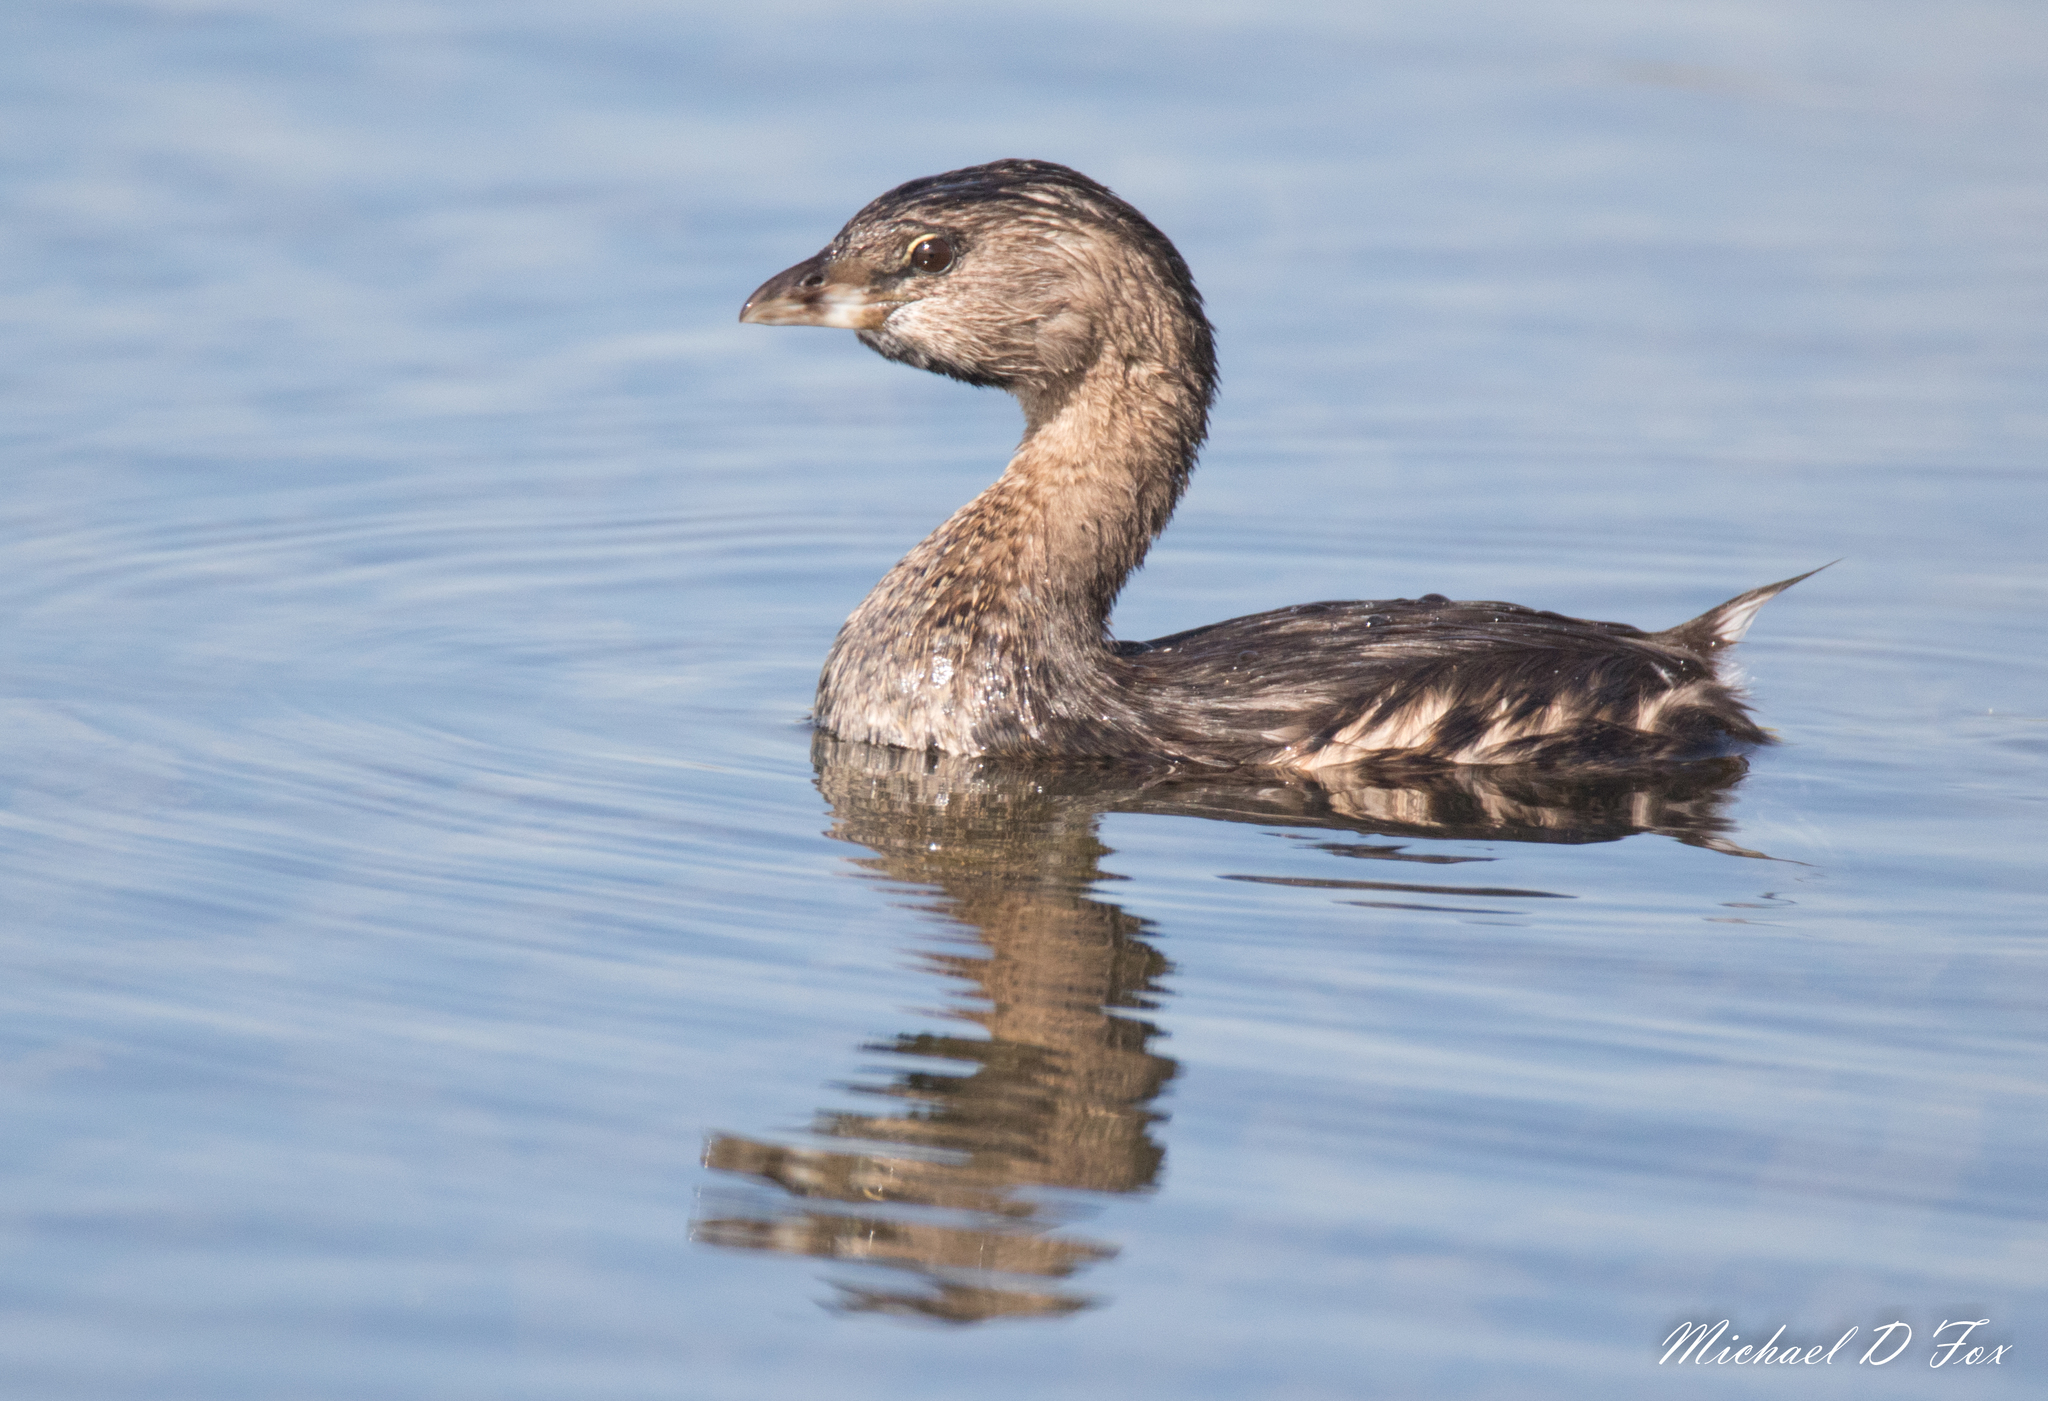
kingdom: Animalia
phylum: Chordata
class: Aves
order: Podicipediformes
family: Podicipedidae
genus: Podilymbus
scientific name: Podilymbus podiceps
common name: Pied-billed grebe
